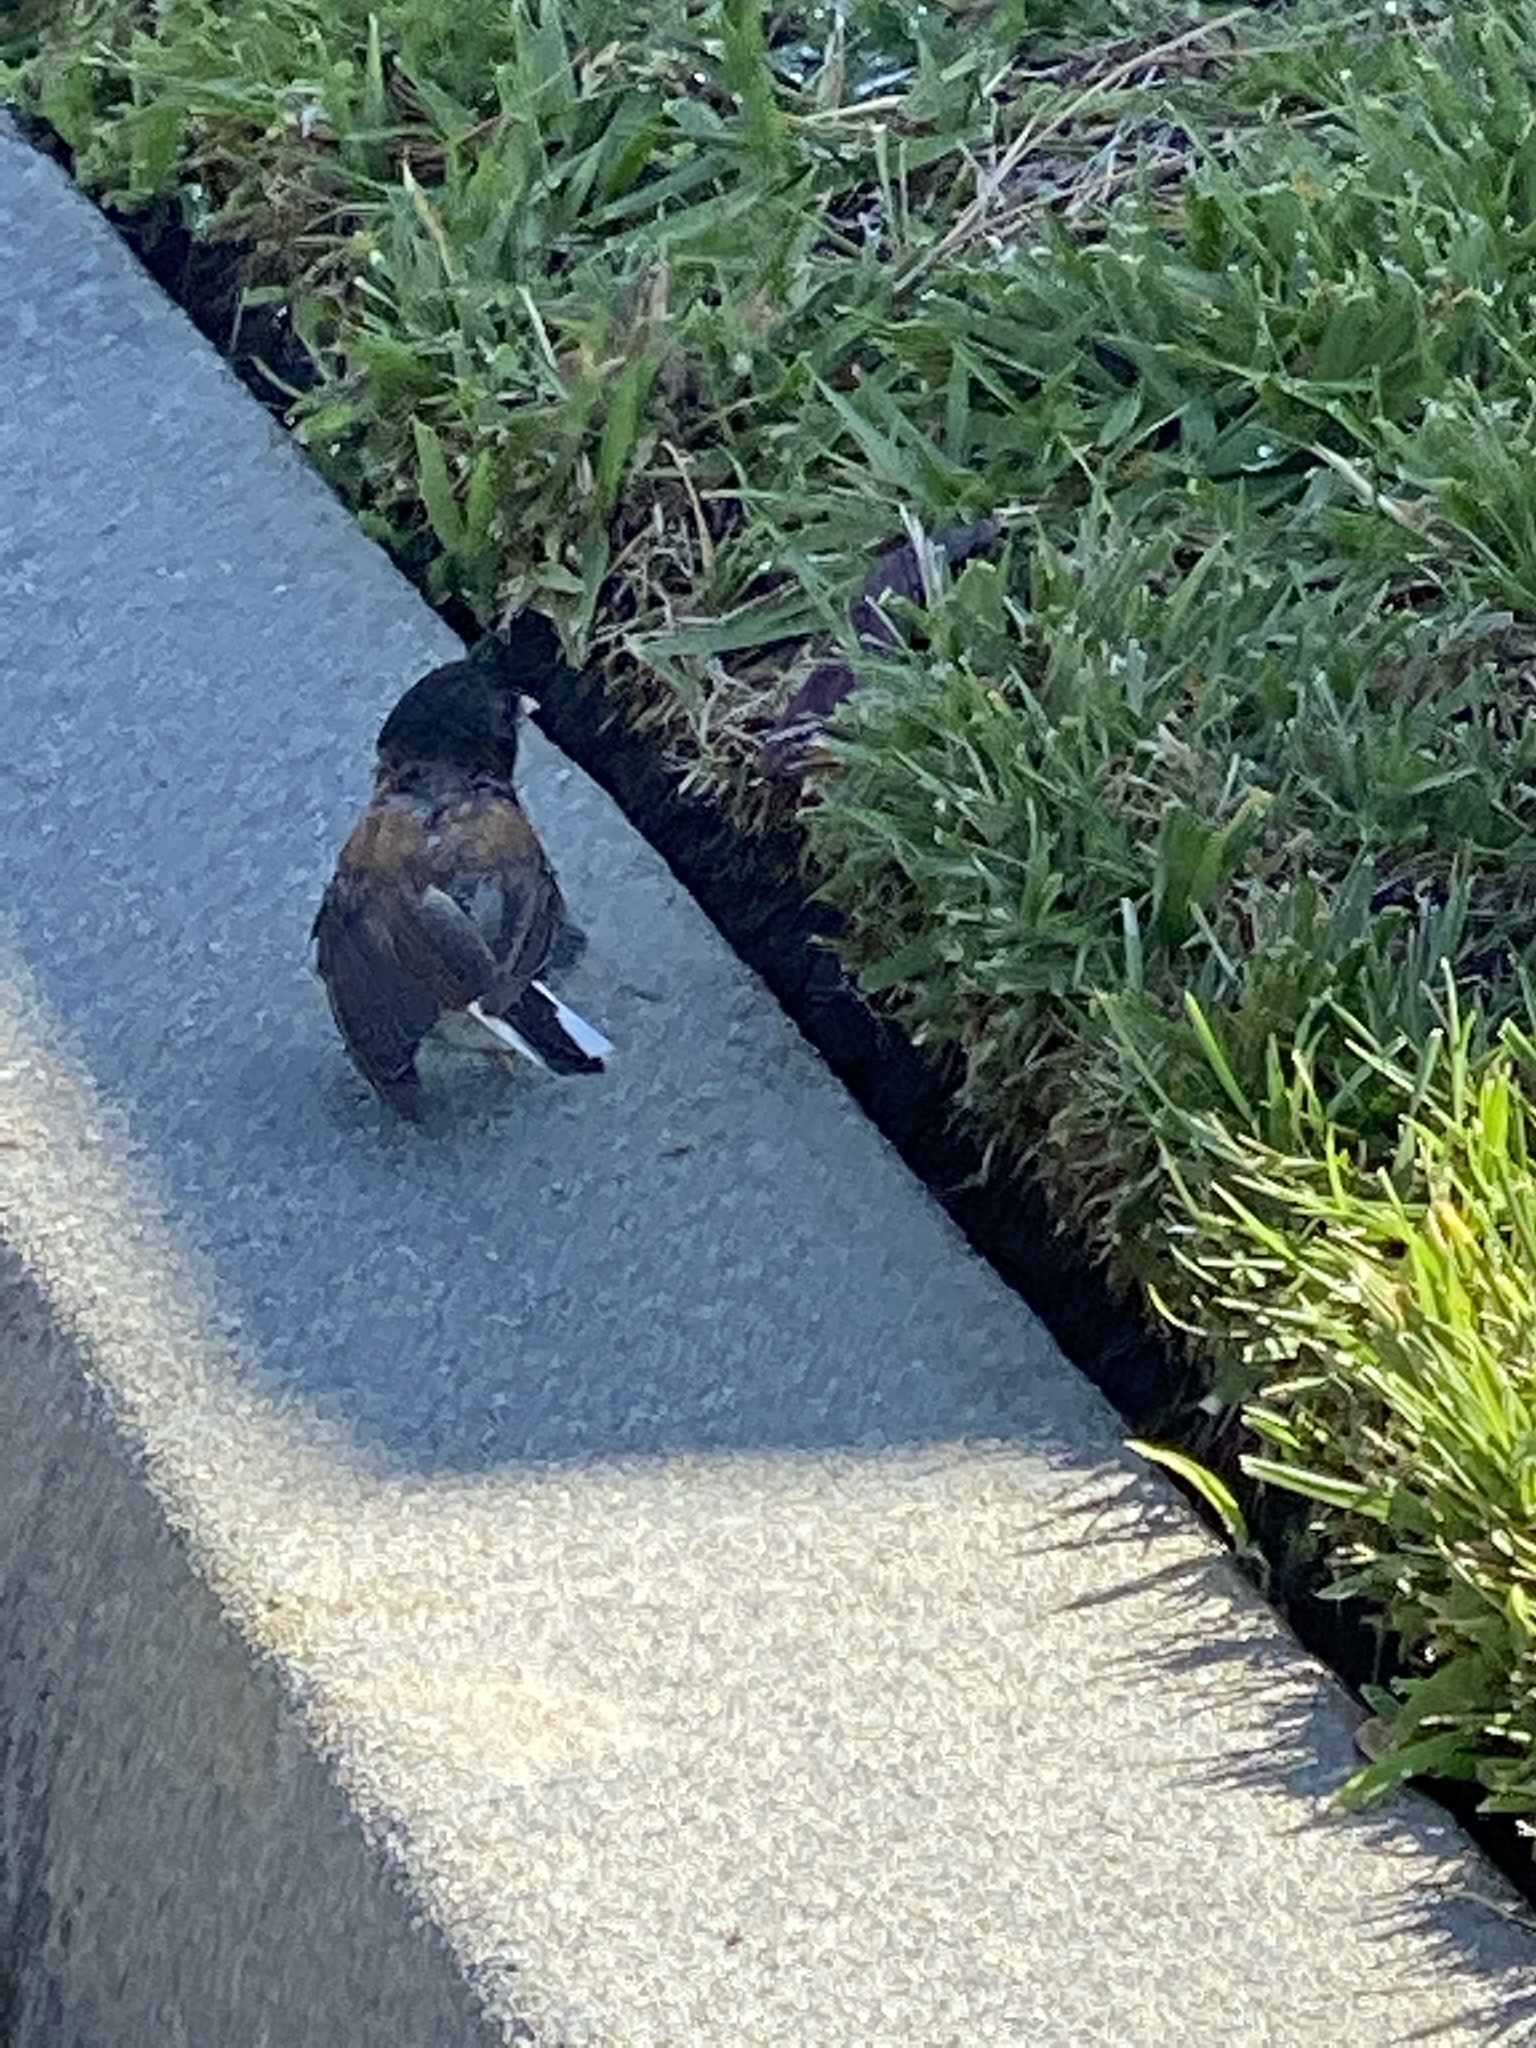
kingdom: Animalia
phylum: Chordata
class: Aves
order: Passeriformes
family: Passerellidae
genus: Junco
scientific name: Junco hyemalis
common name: Dark-eyed junco
